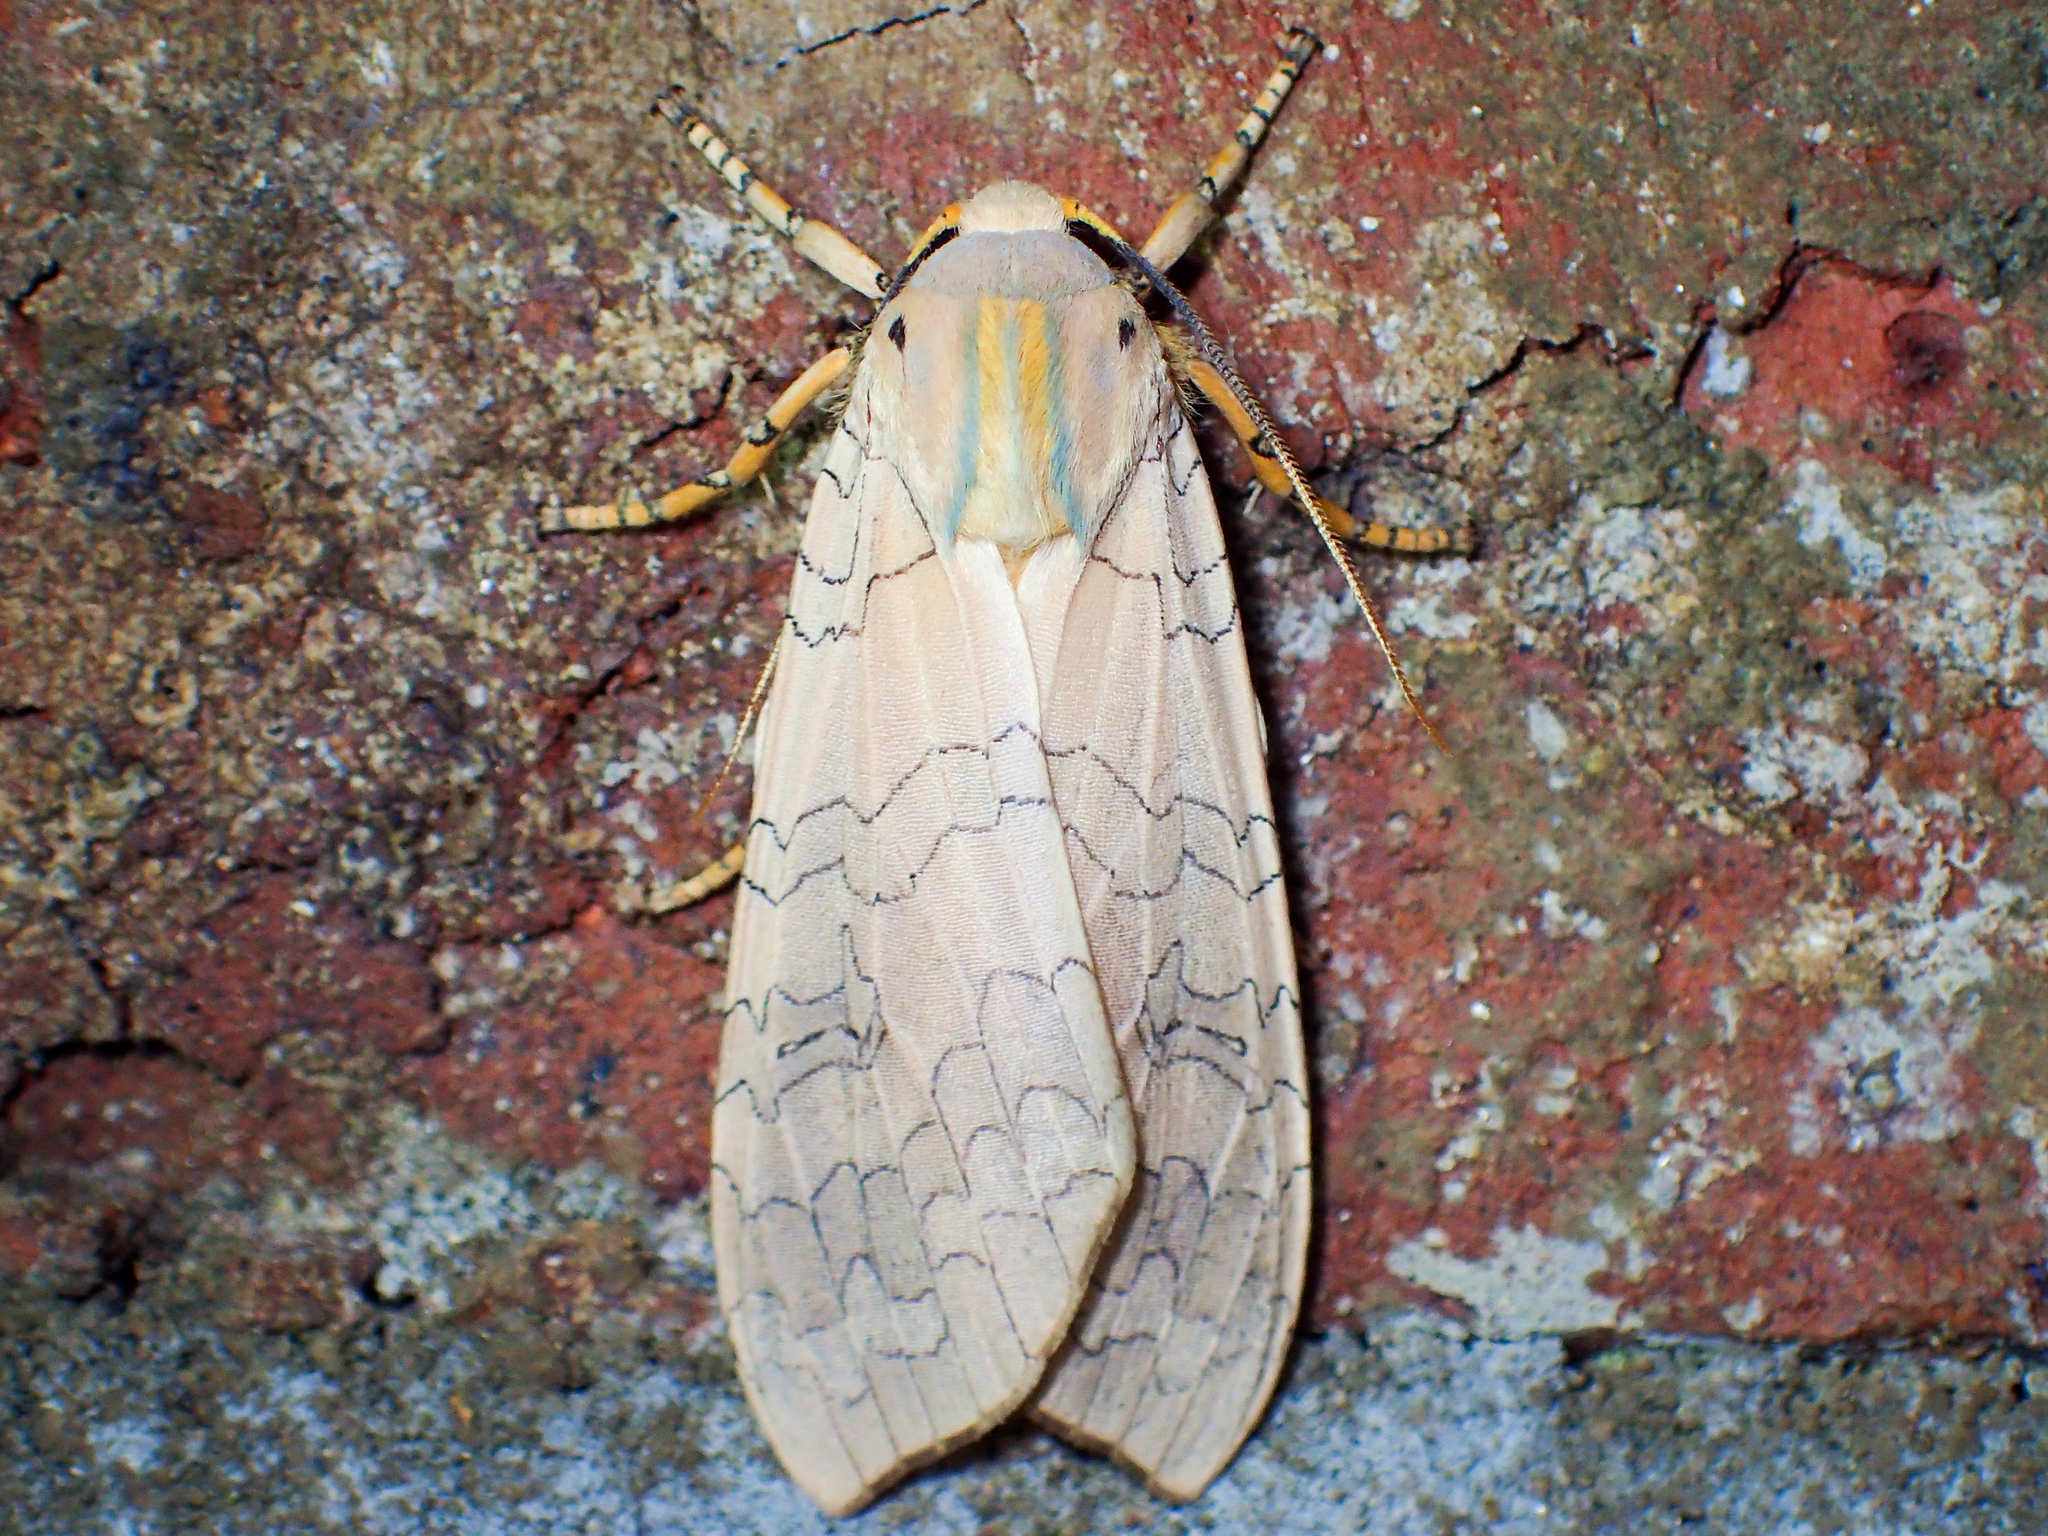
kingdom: Animalia
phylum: Arthropoda
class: Insecta
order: Lepidoptera
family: Erebidae
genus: Halysidota
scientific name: Halysidota
